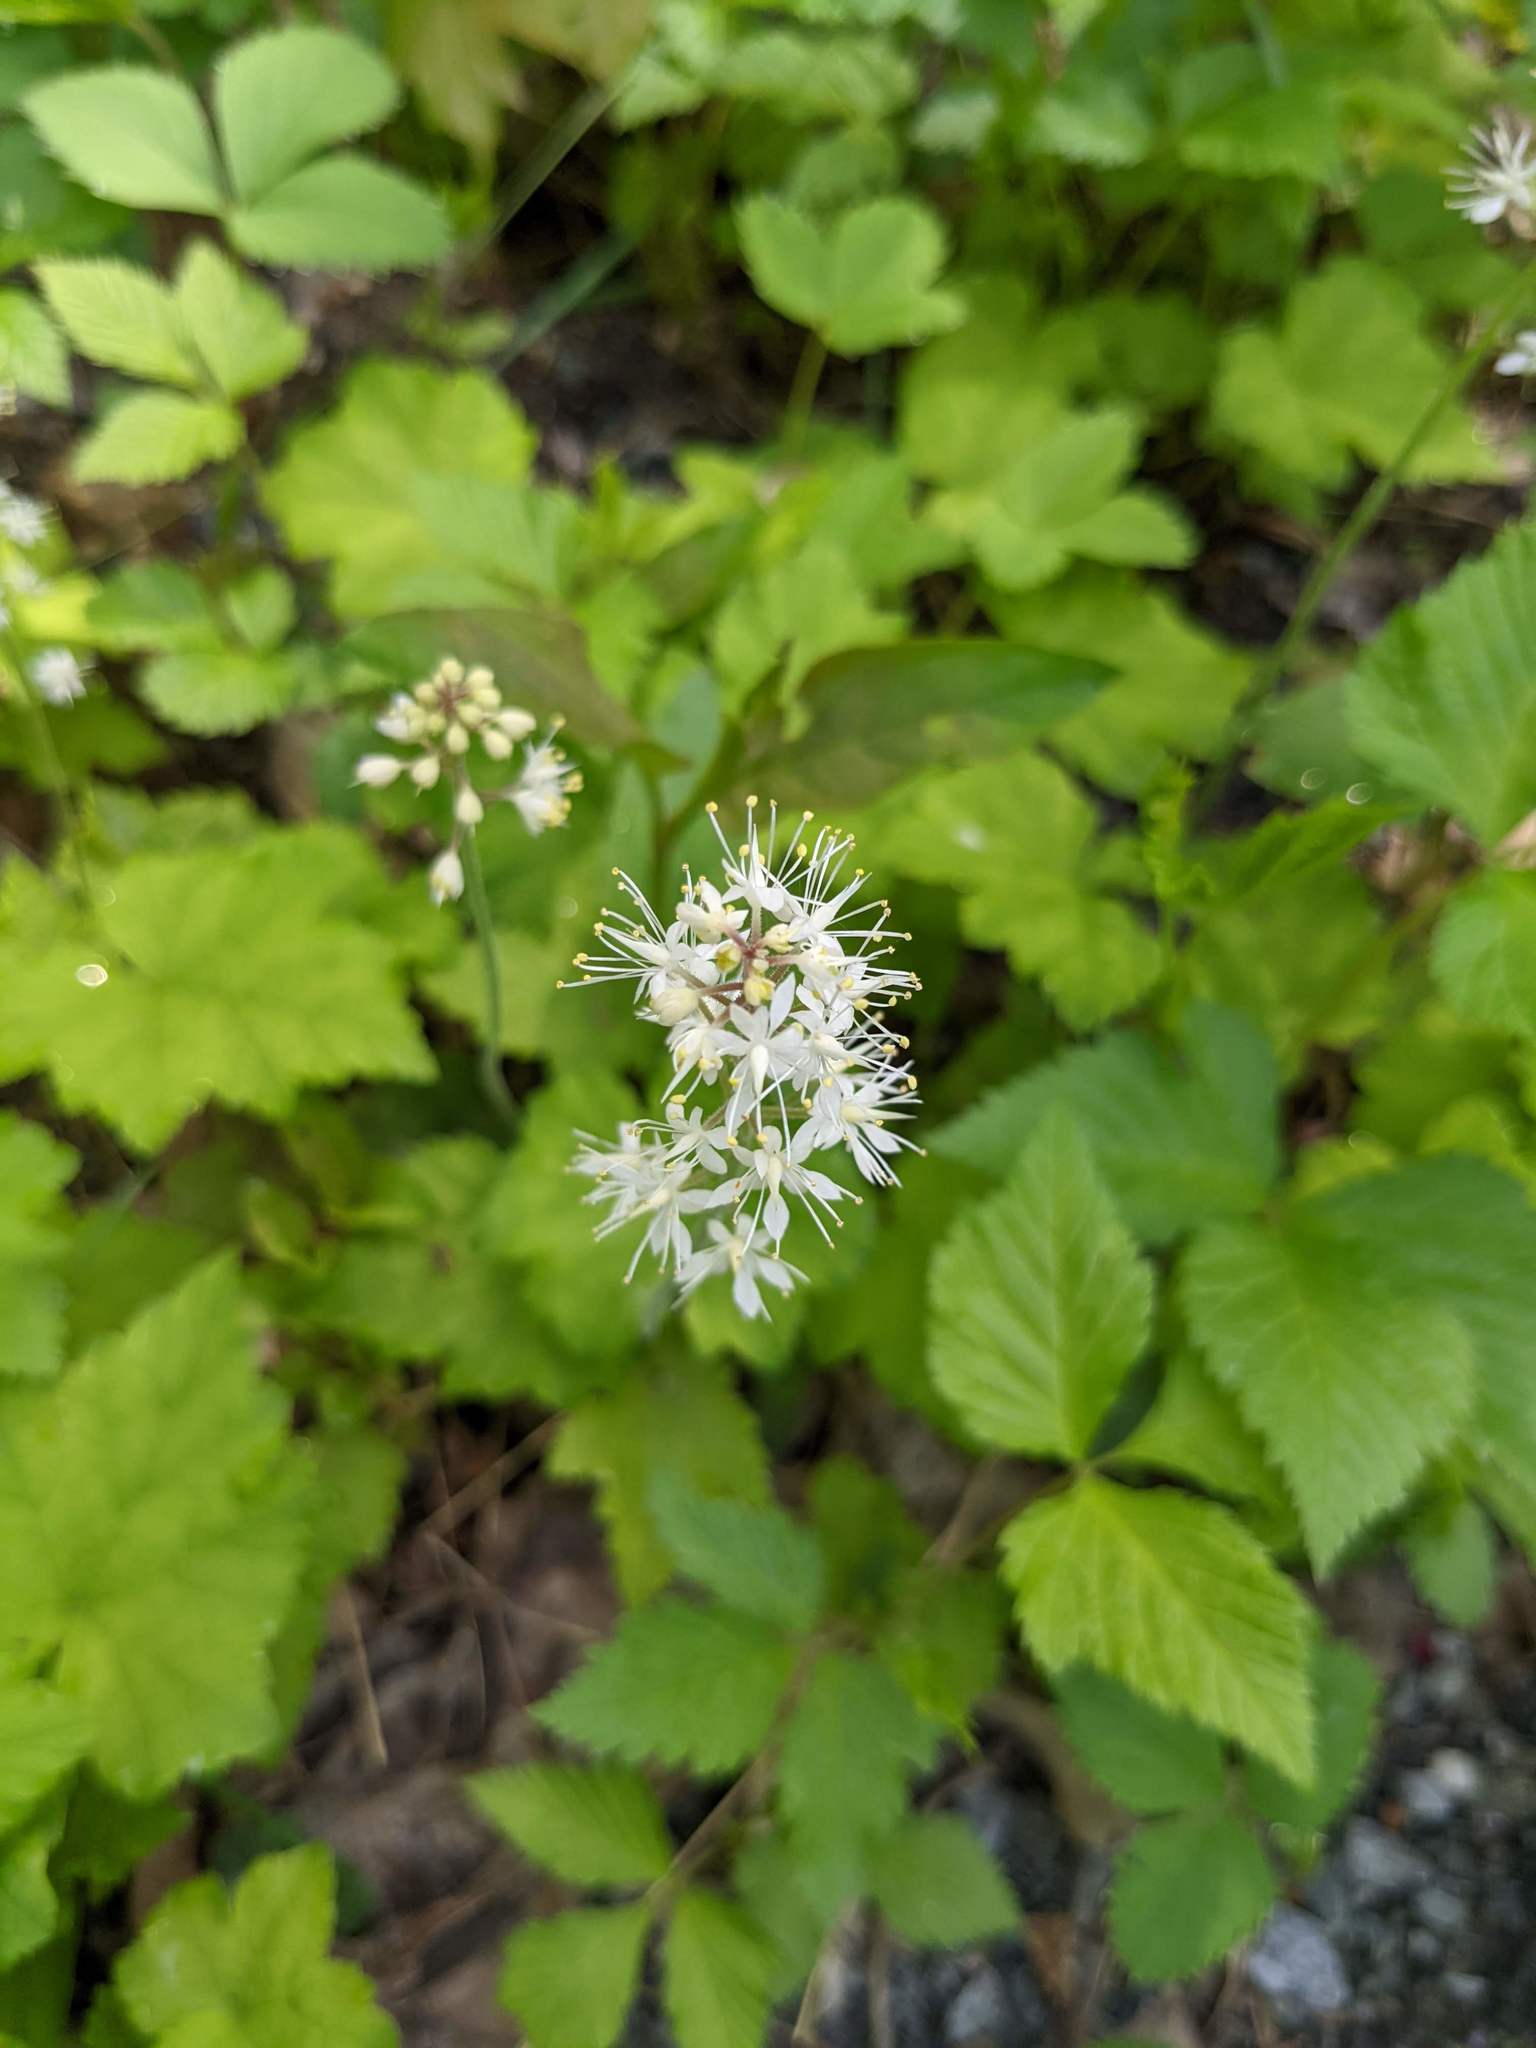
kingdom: Plantae
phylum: Tracheophyta
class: Magnoliopsida
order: Saxifragales
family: Saxifragaceae
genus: Tiarella
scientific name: Tiarella stolonifera
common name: Stoloniferous foamflower
